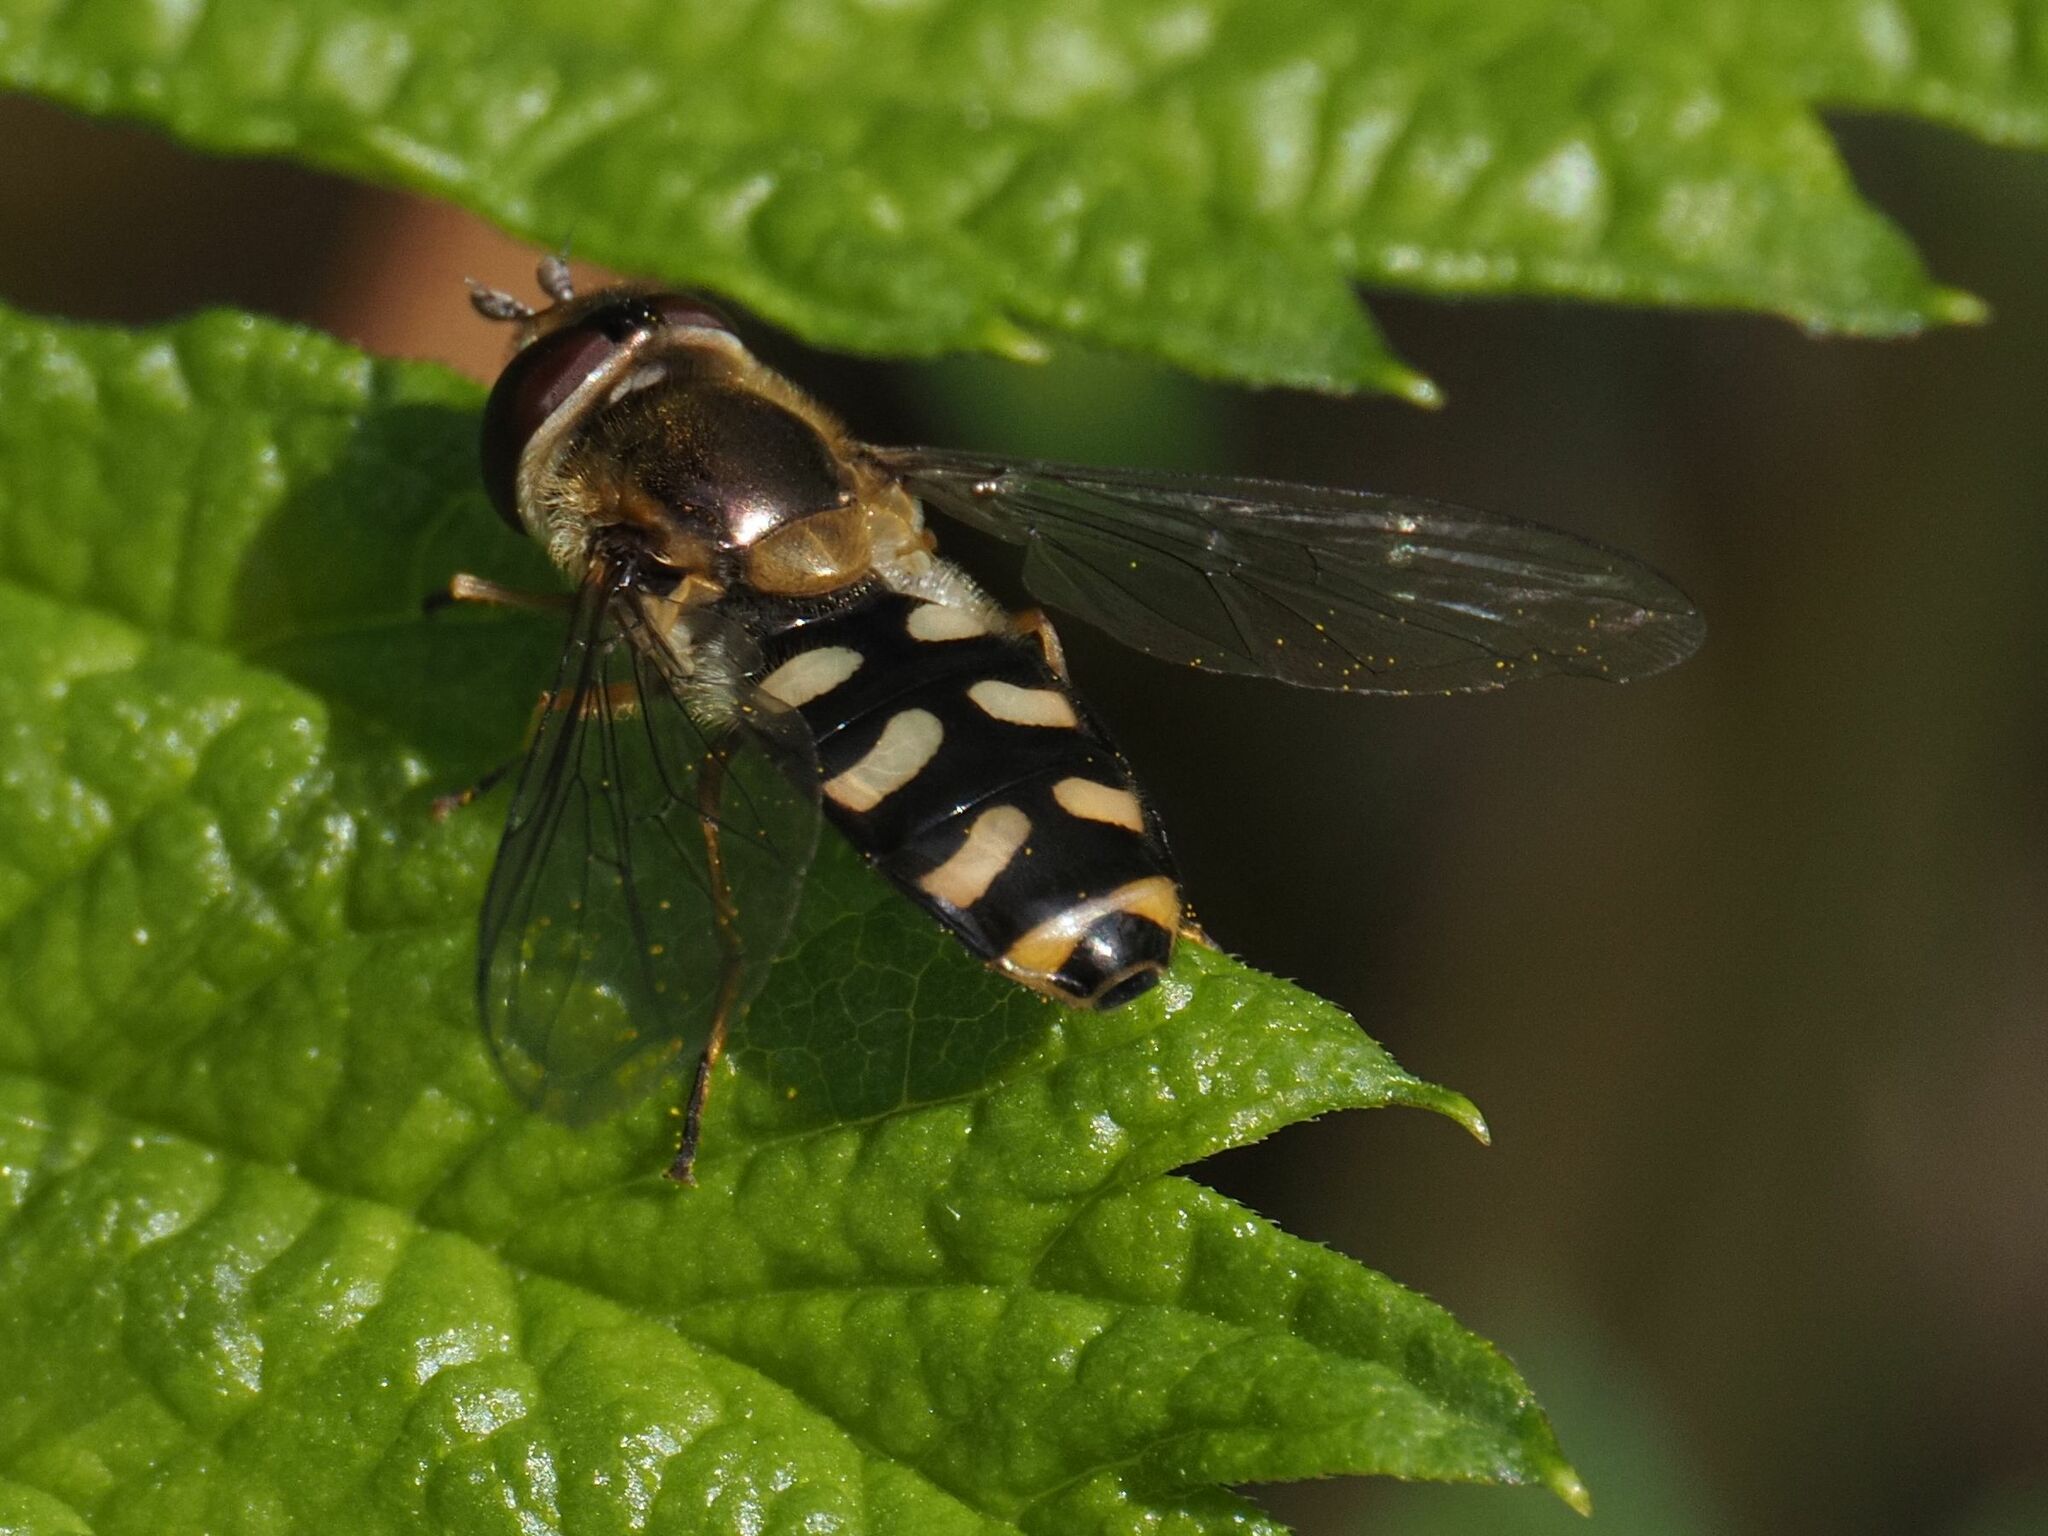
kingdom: Animalia
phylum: Arthropoda
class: Insecta
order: Diptera
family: Syrphidae
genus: Eupeodes
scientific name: Eupeodes luniger
